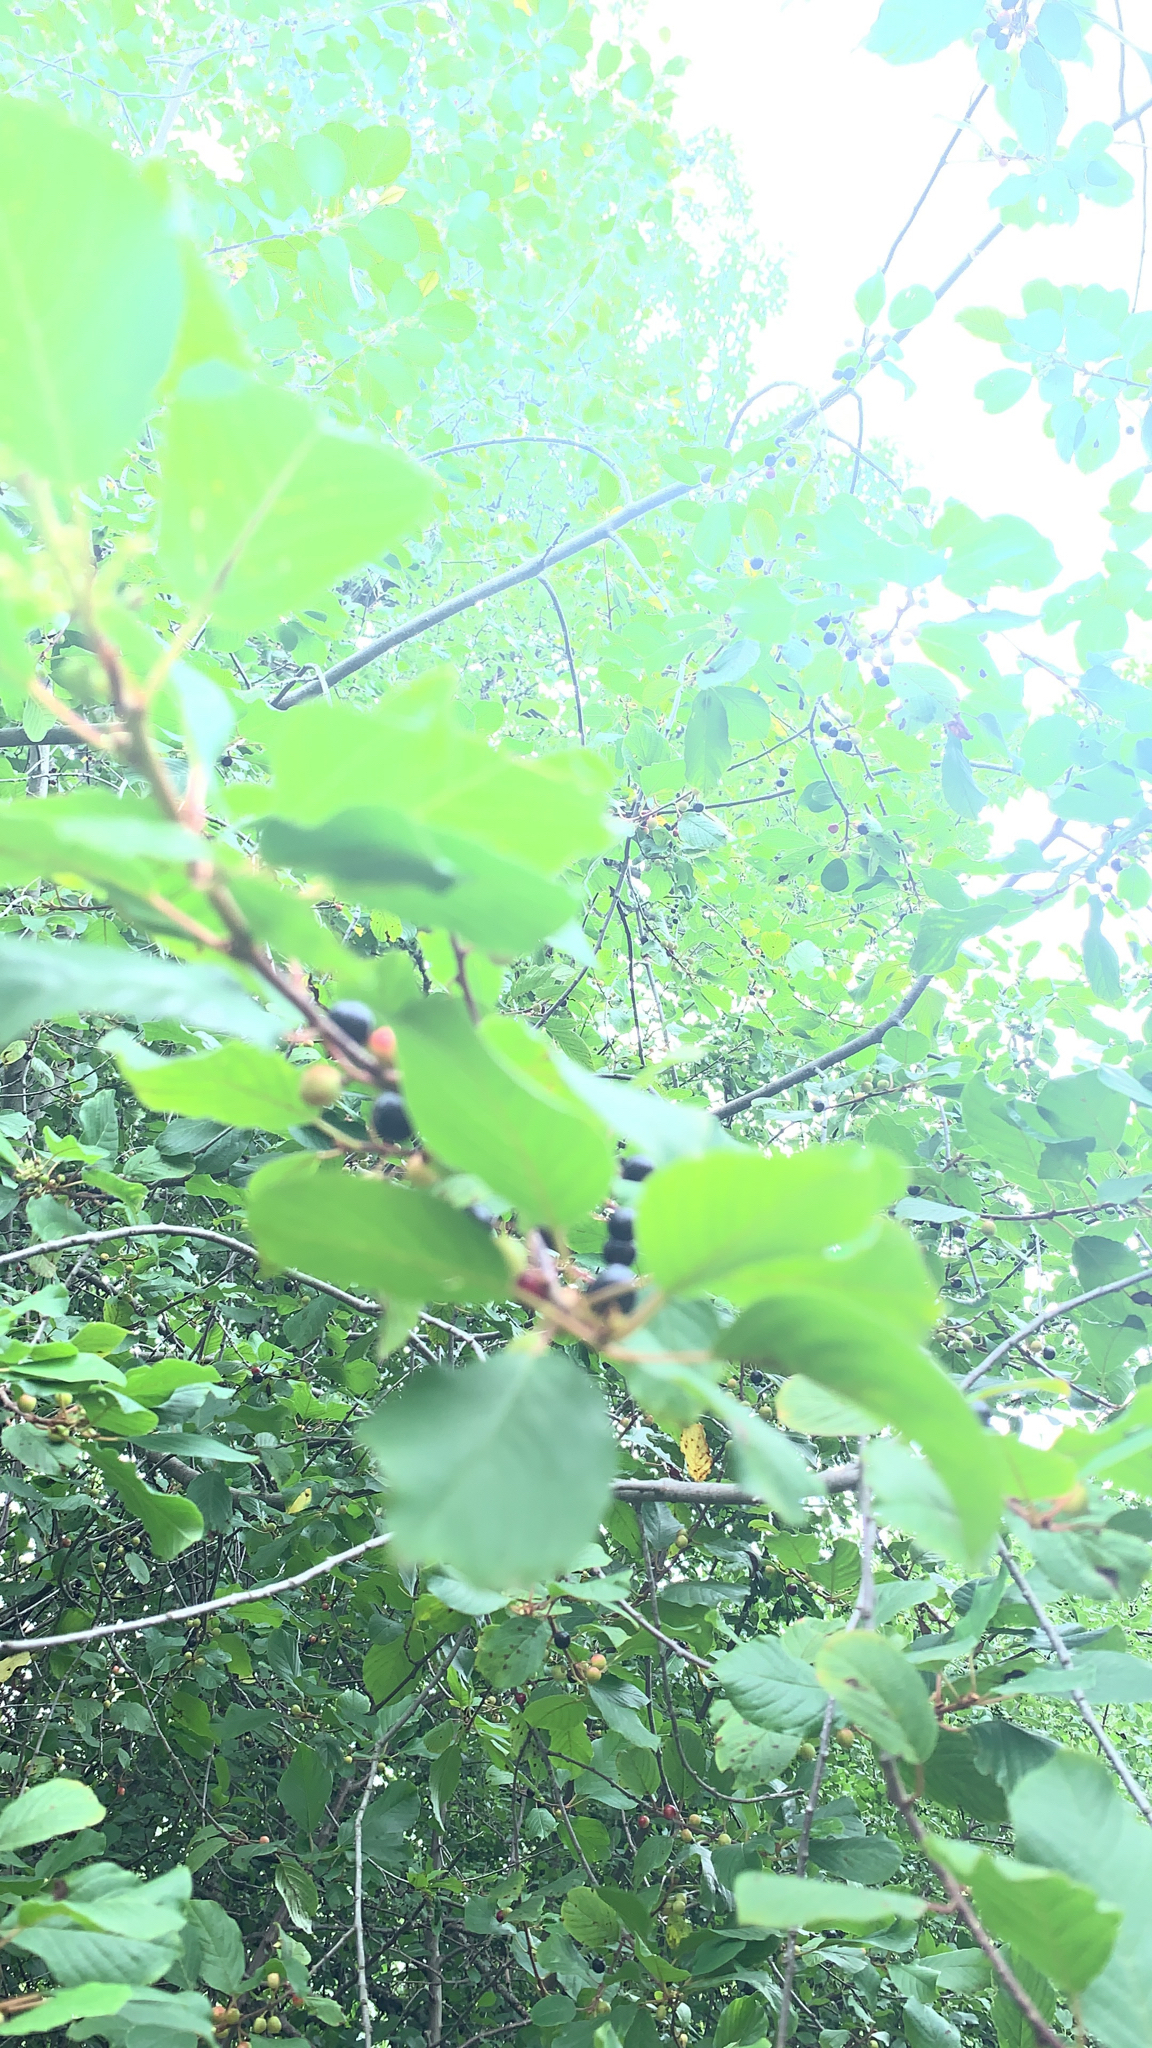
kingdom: Plantae
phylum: Tracheophyta
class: Magnoliopsida
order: Rosales
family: Rhamnaceae
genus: Frangula
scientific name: Frangula alnus
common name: Alder buckthorn
